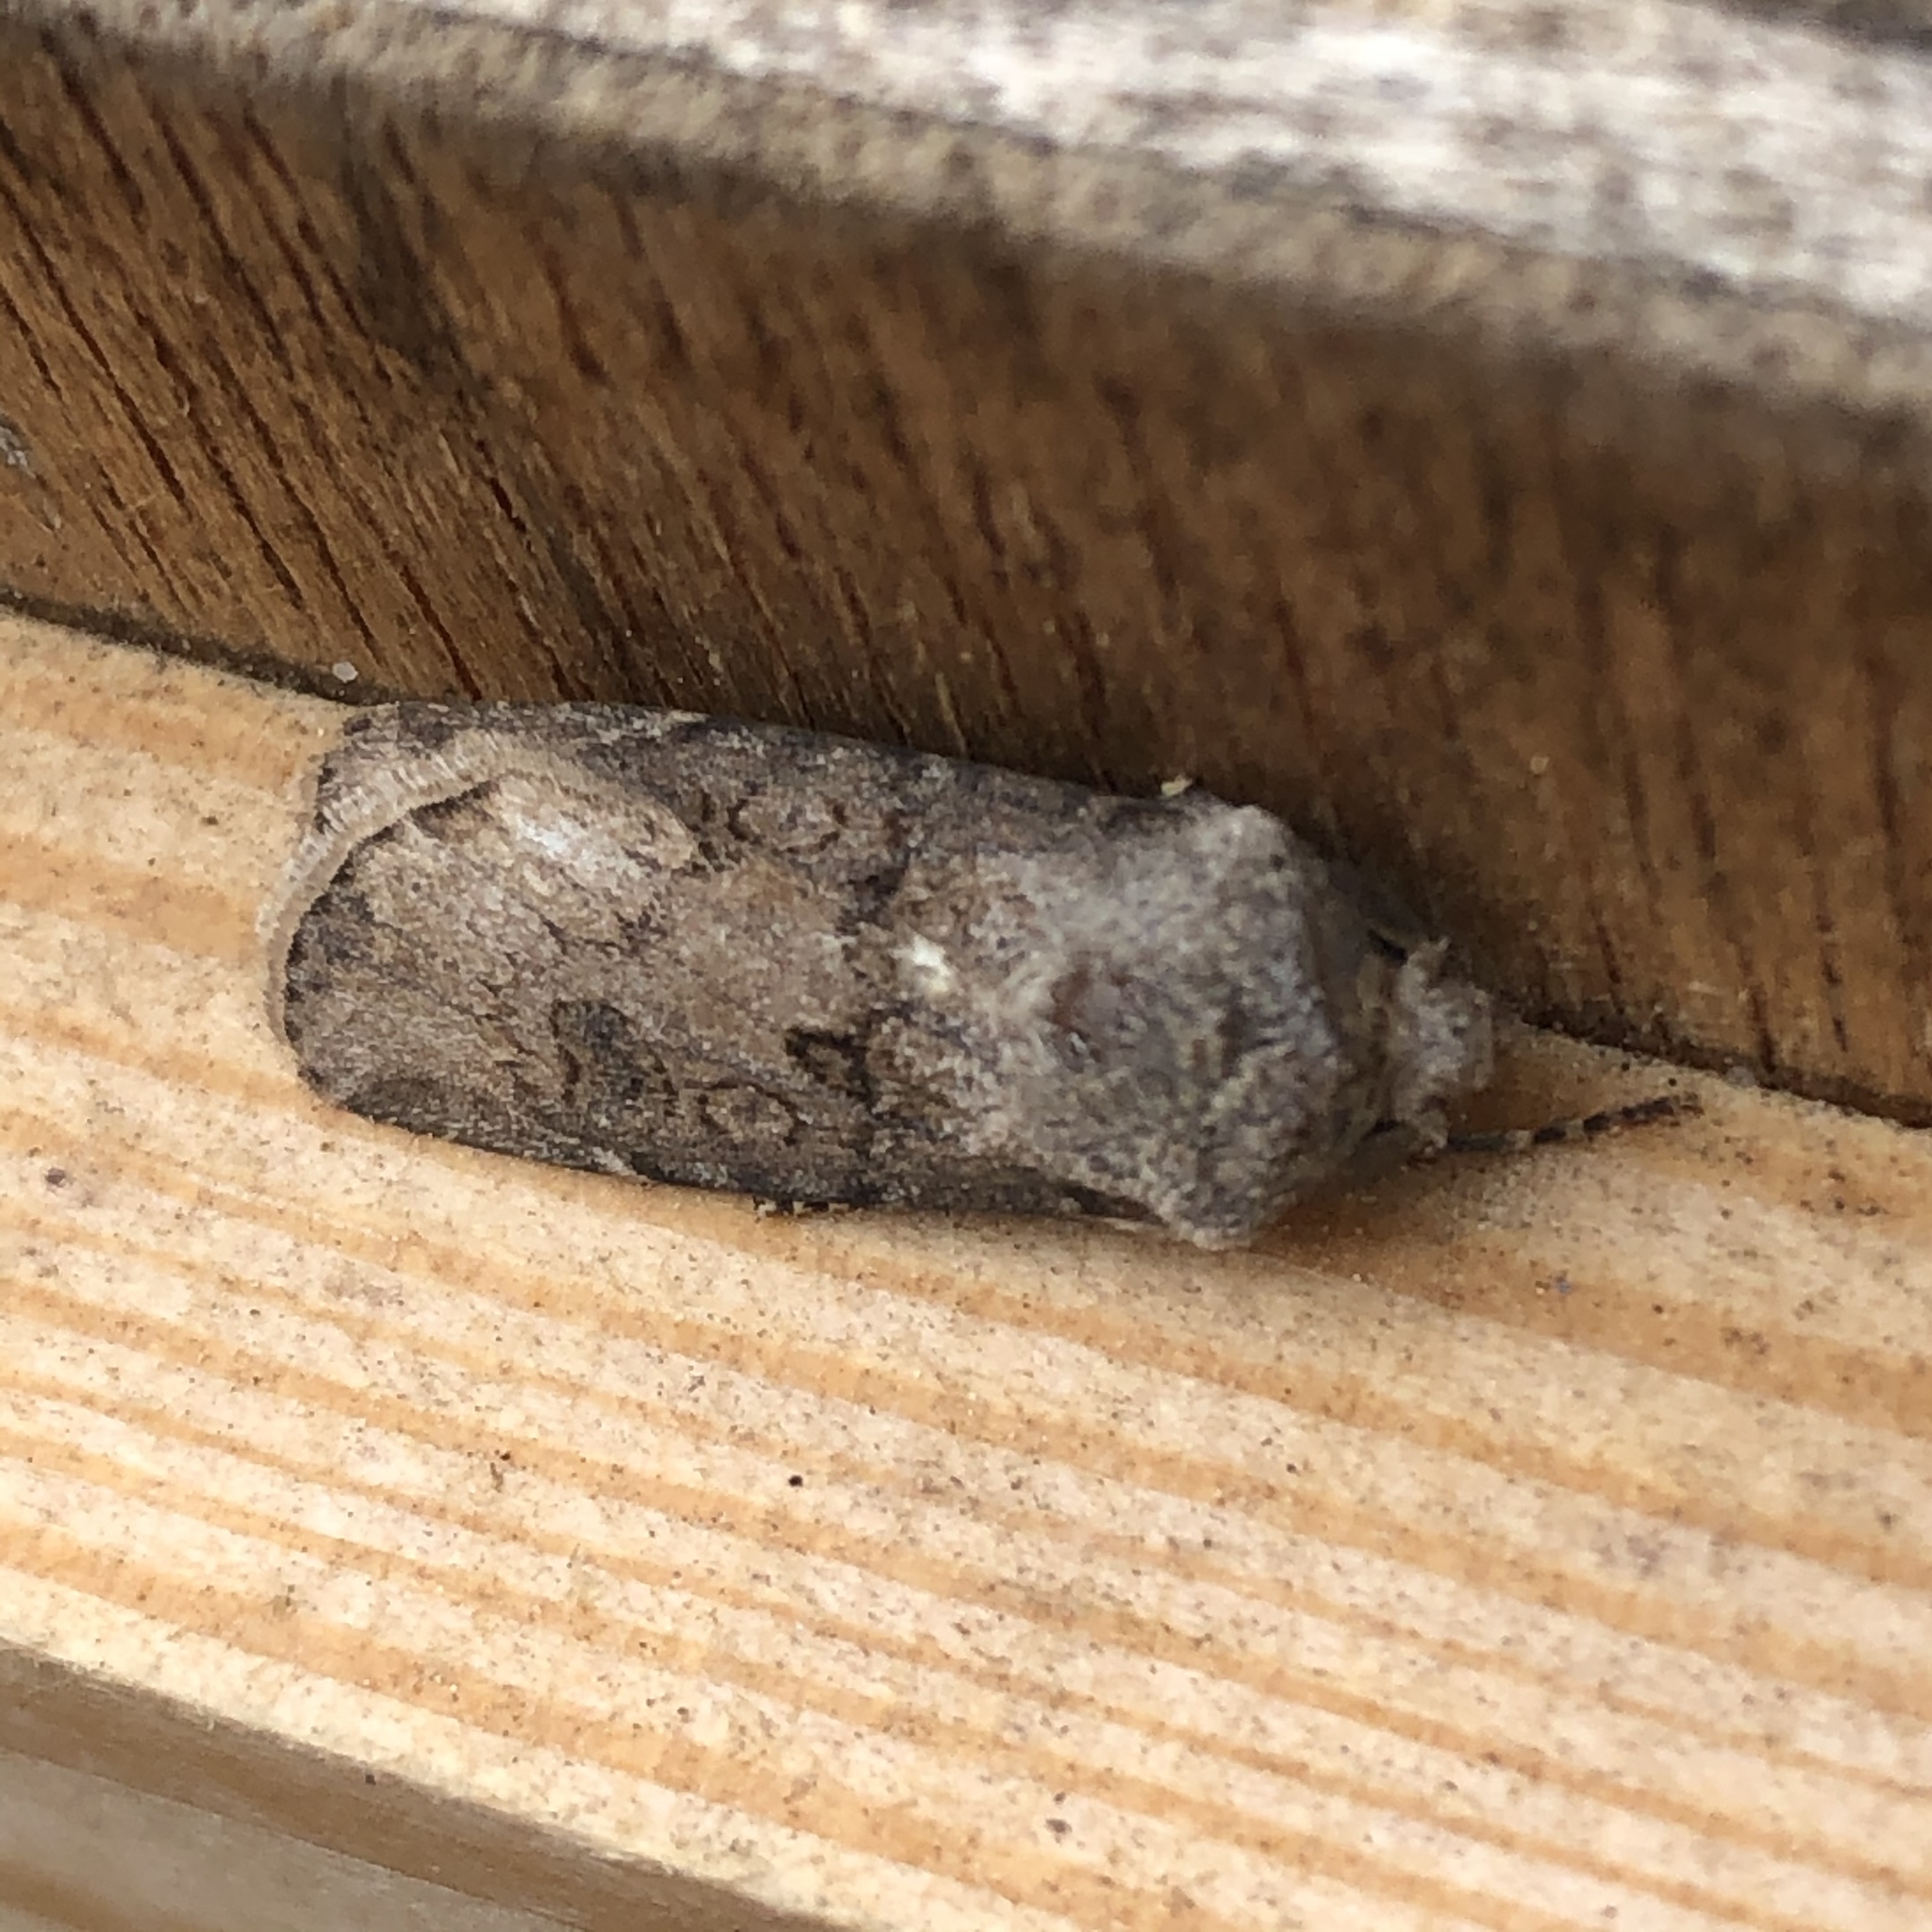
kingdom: Animalia
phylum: Arthropoda
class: Insecta
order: Lepidoptera
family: Noctuidae
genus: Agrotis
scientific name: Agrotis segetum
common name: Turnip moth
